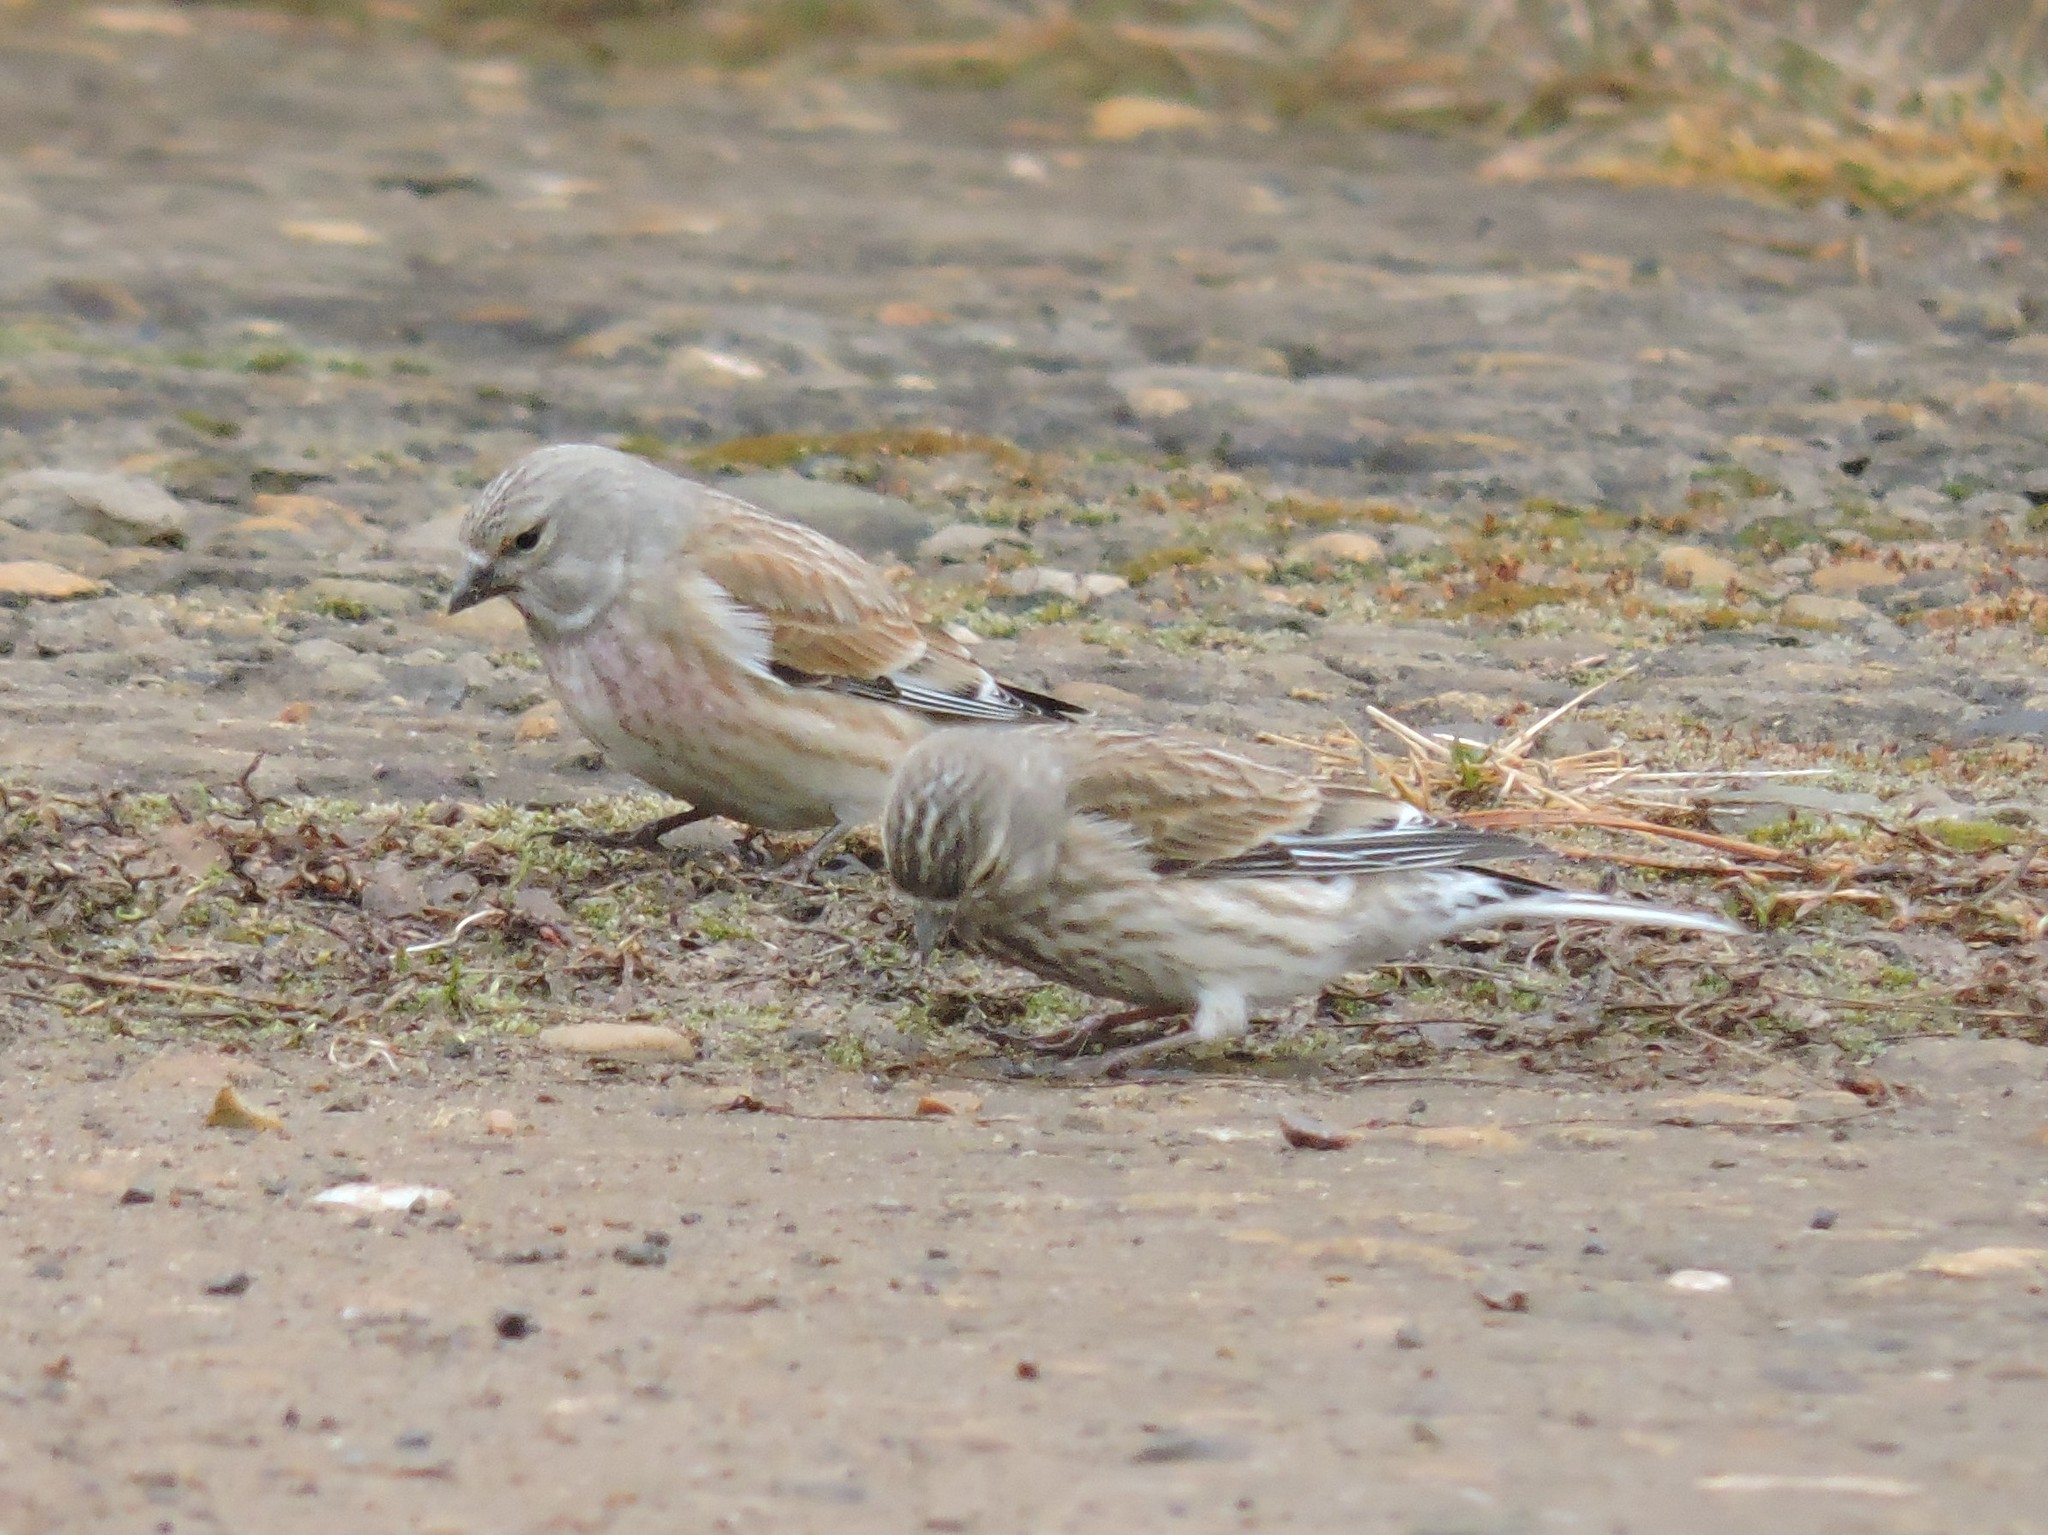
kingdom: Animalia
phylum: Chordata
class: Aves
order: Passeriformes
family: Fringillidae
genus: Linaria
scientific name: Linaria cannabina
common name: Common linnet
